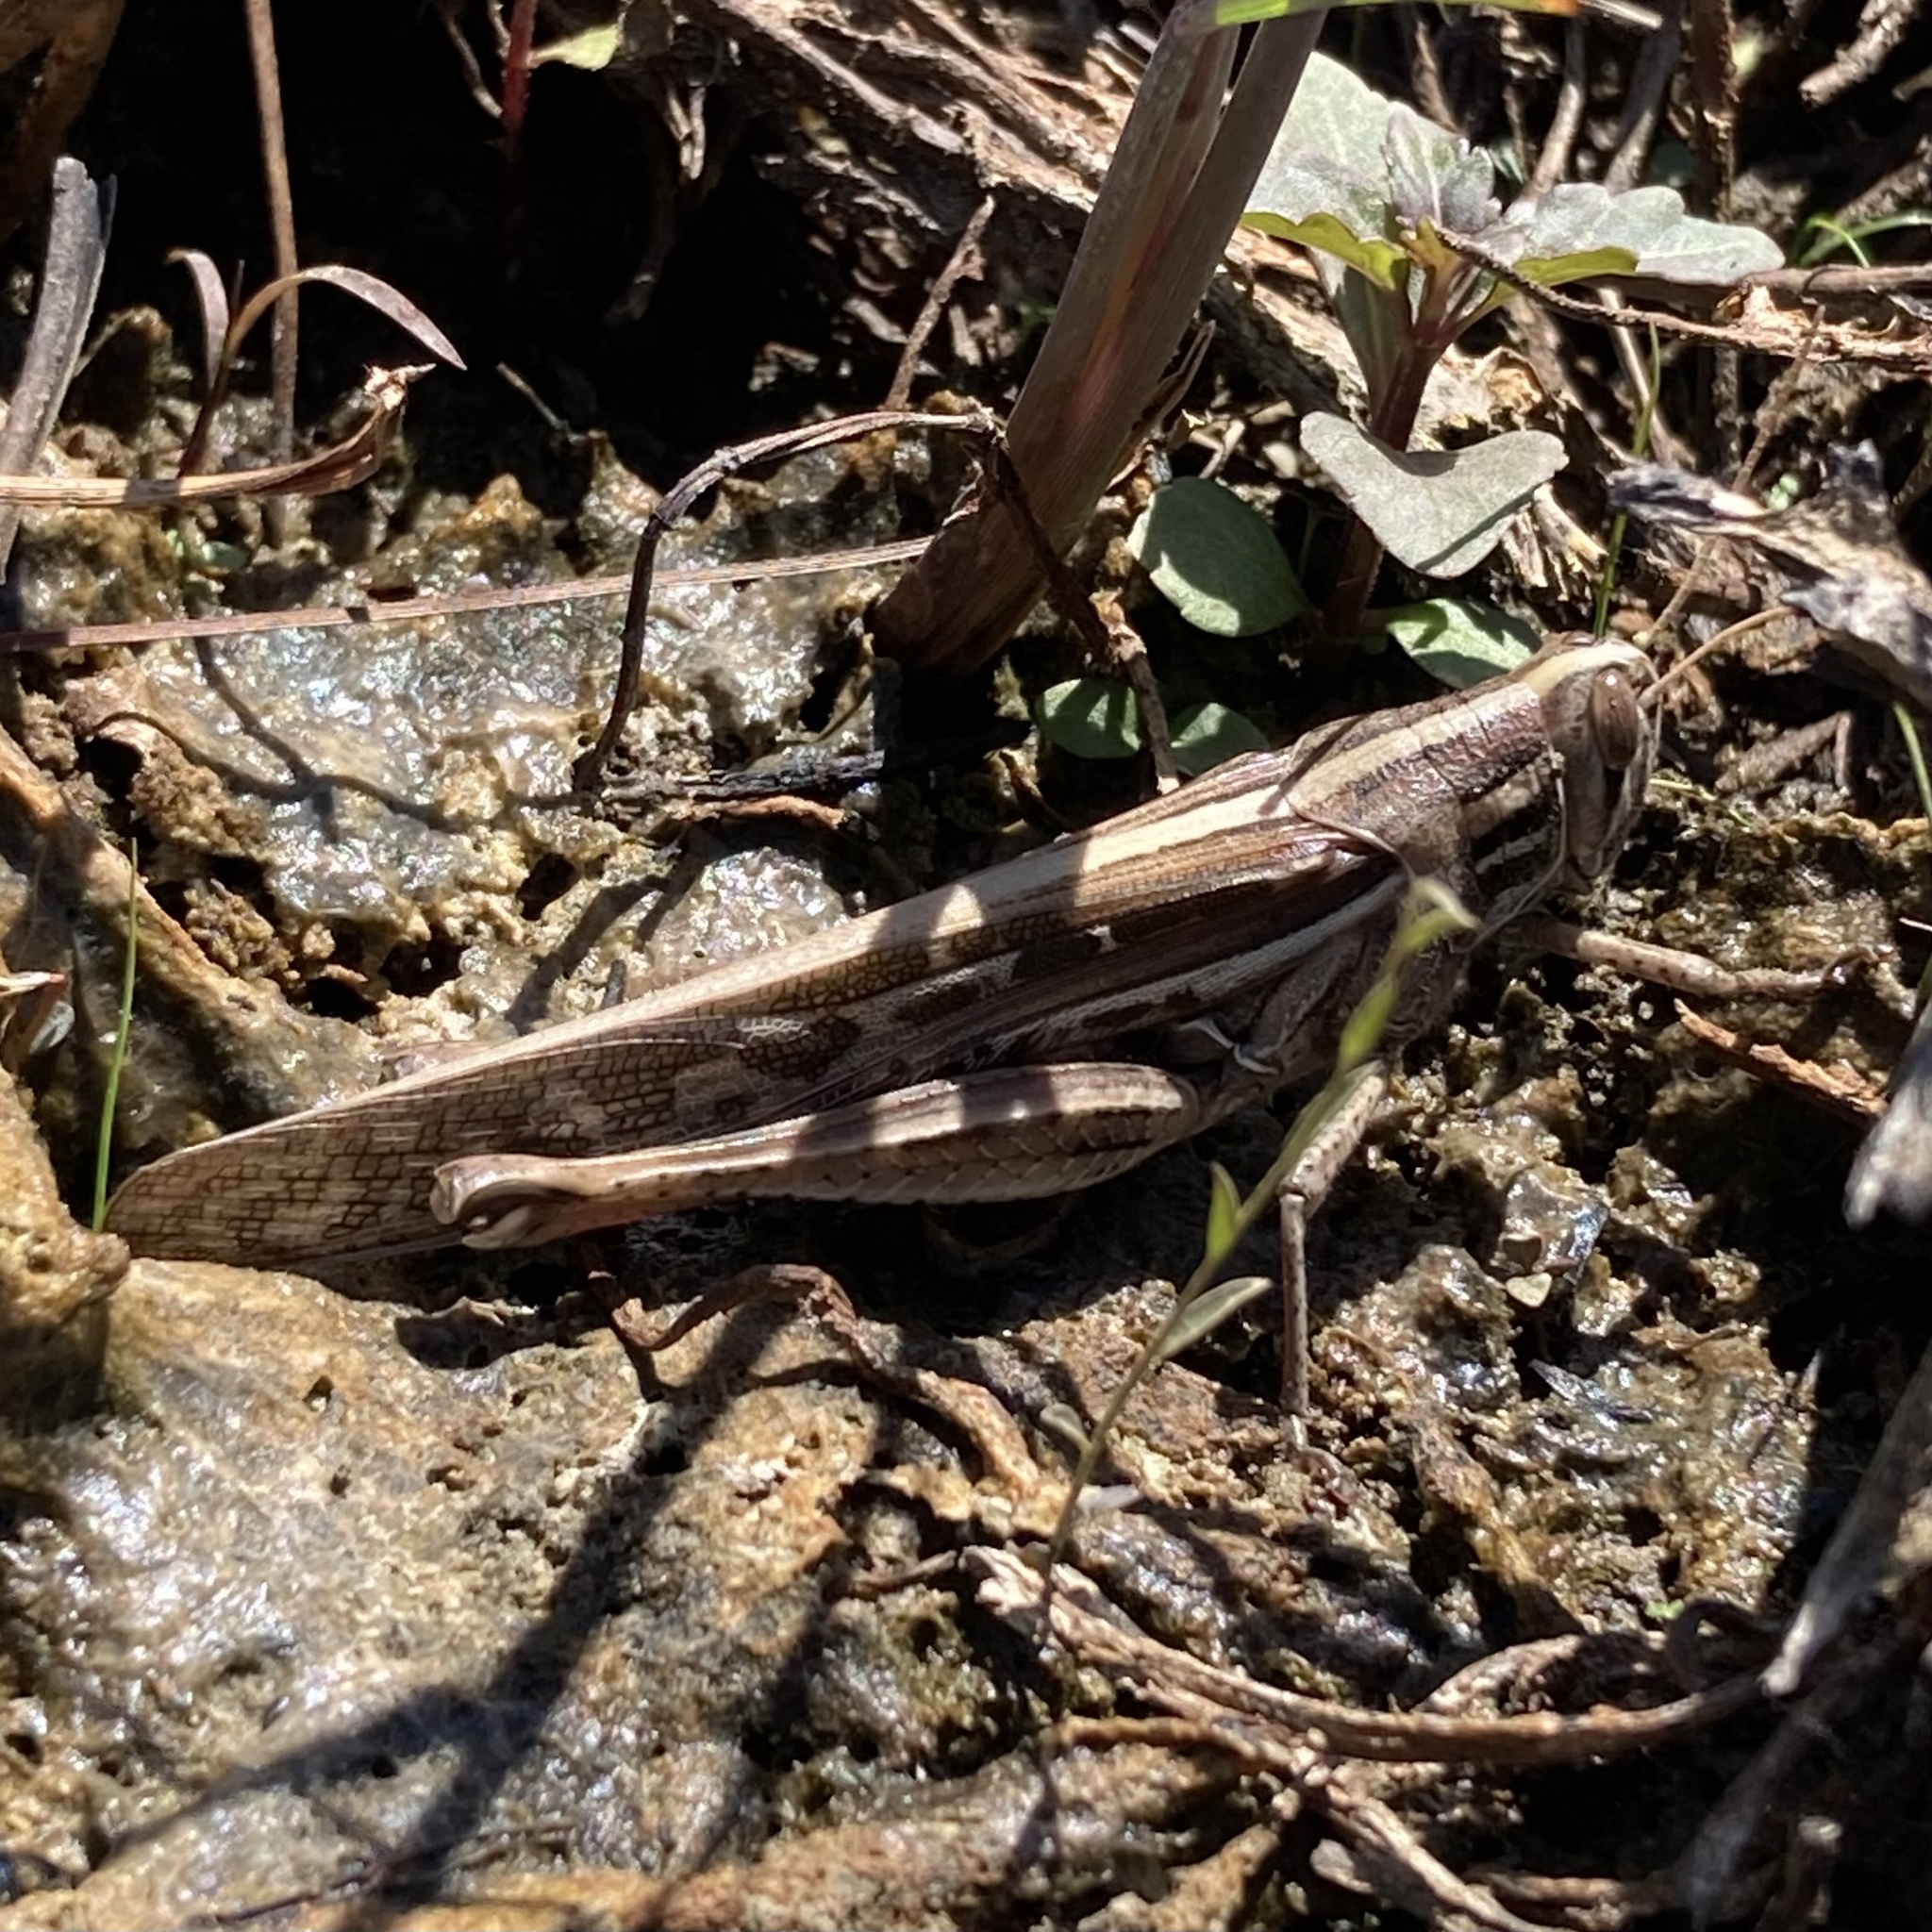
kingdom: Animalia
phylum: Arthropoda
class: Insecta
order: Orthoptera
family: Acrididae
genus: Schistocerca
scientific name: Schistocerca serialis
